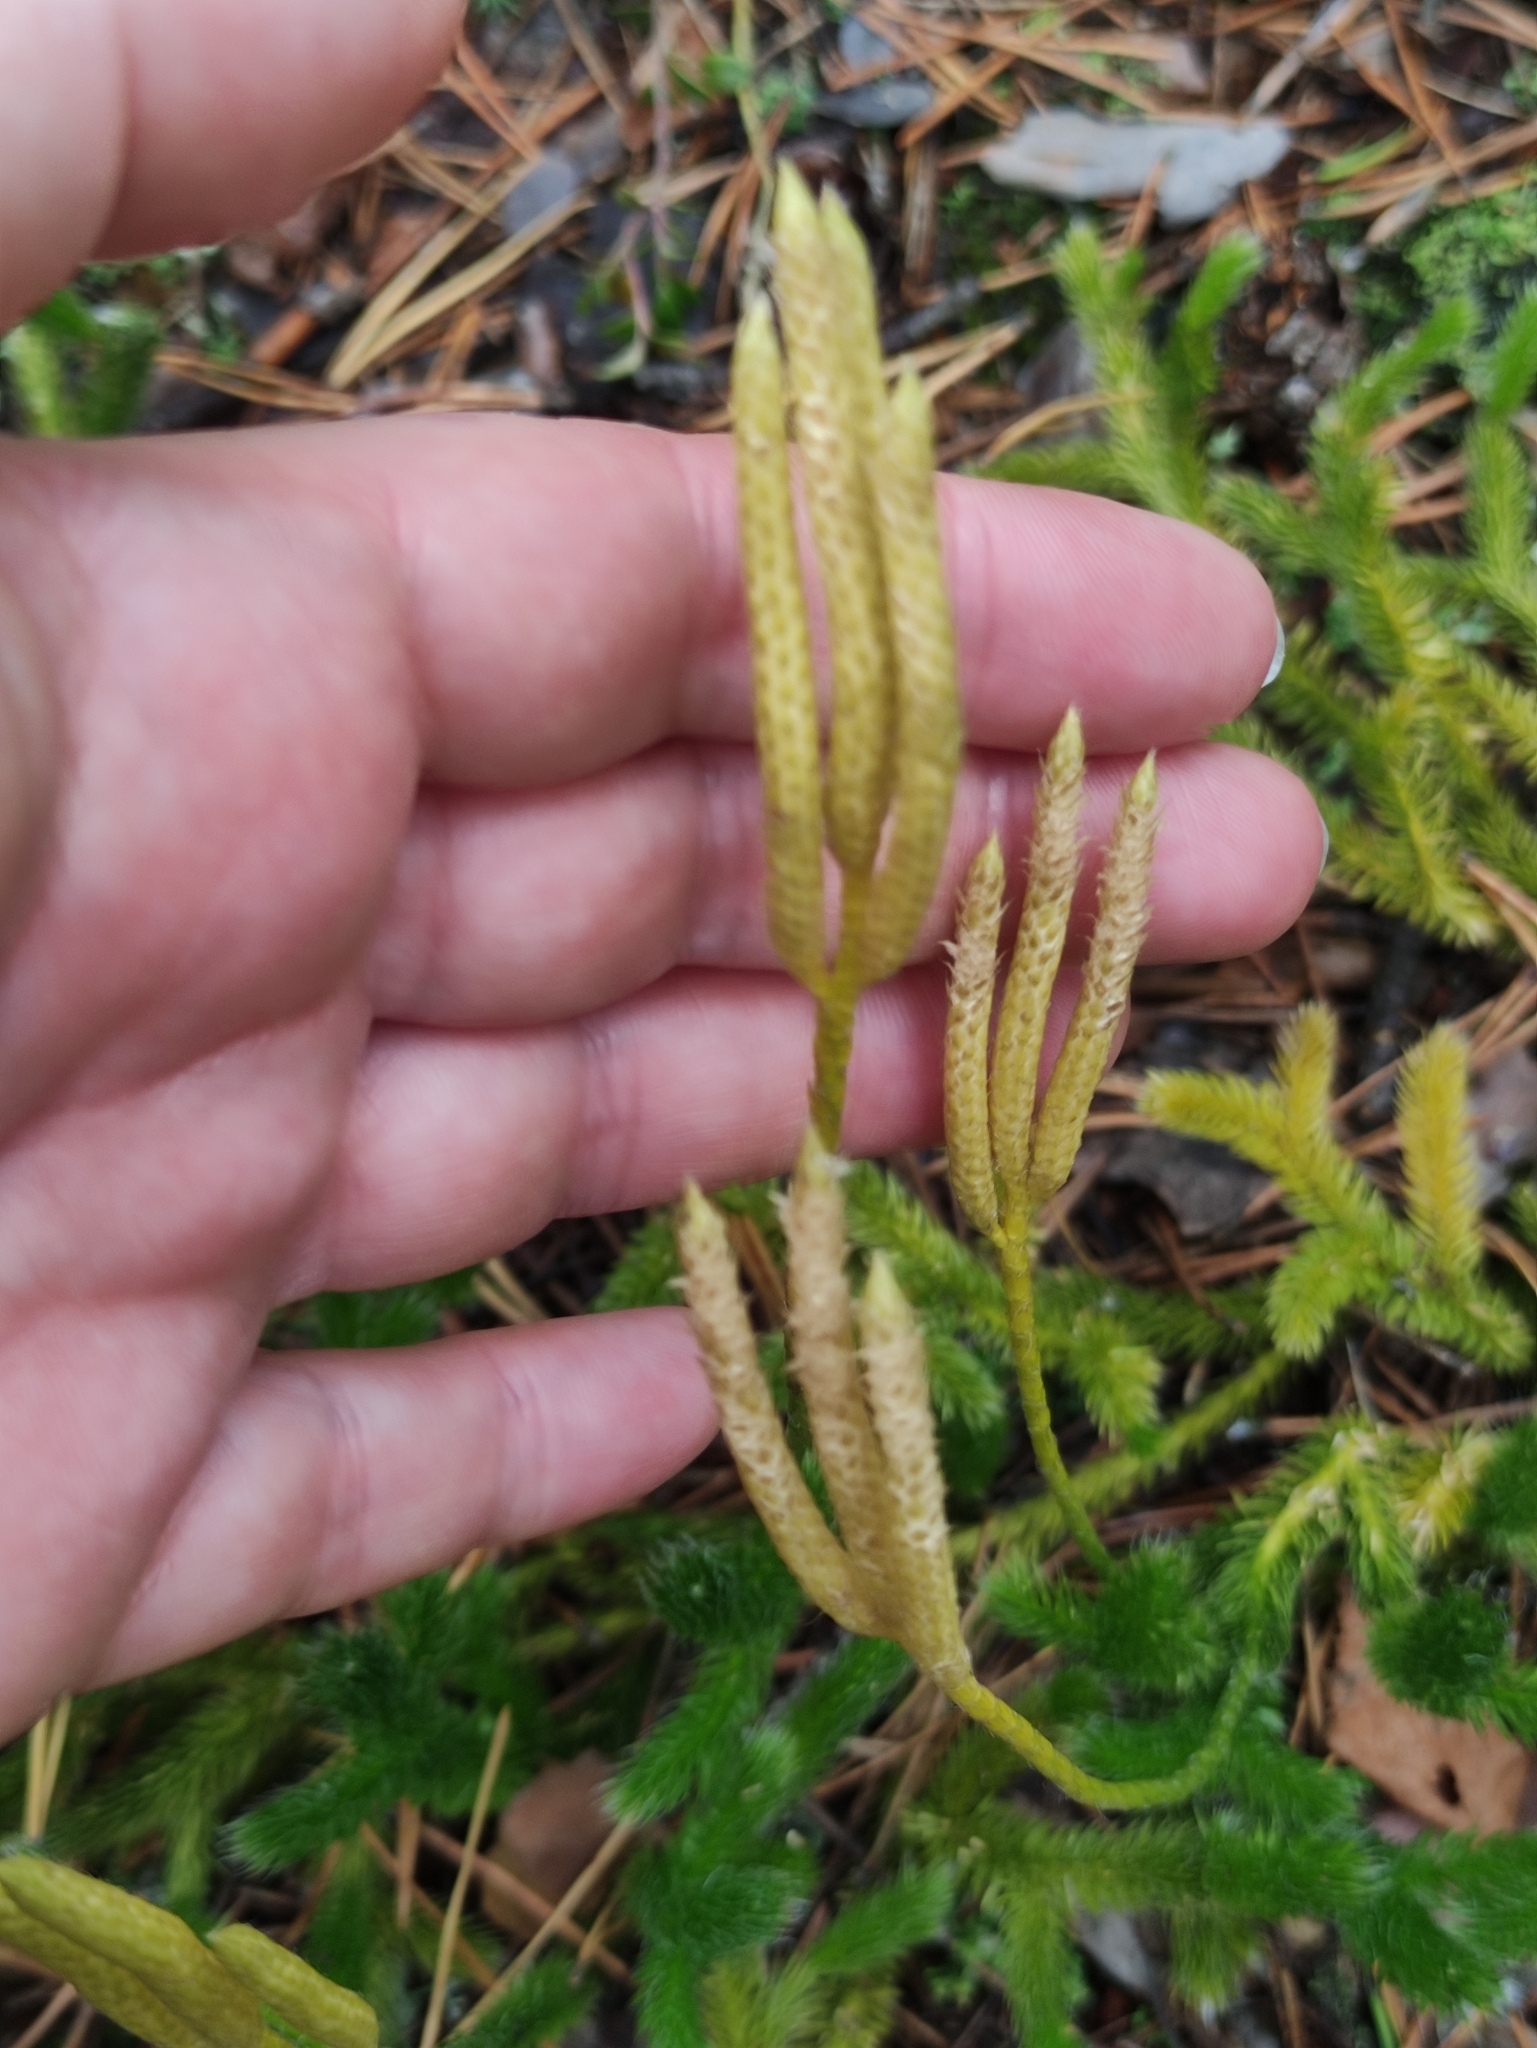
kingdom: Plantae
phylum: Tracheophyta
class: Lycopodiopsida
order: Lycopodiales
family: Lycopodiaceae
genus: Lycopodium
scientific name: Lycopodium clavatum
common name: Stag's-horn clubmoss
